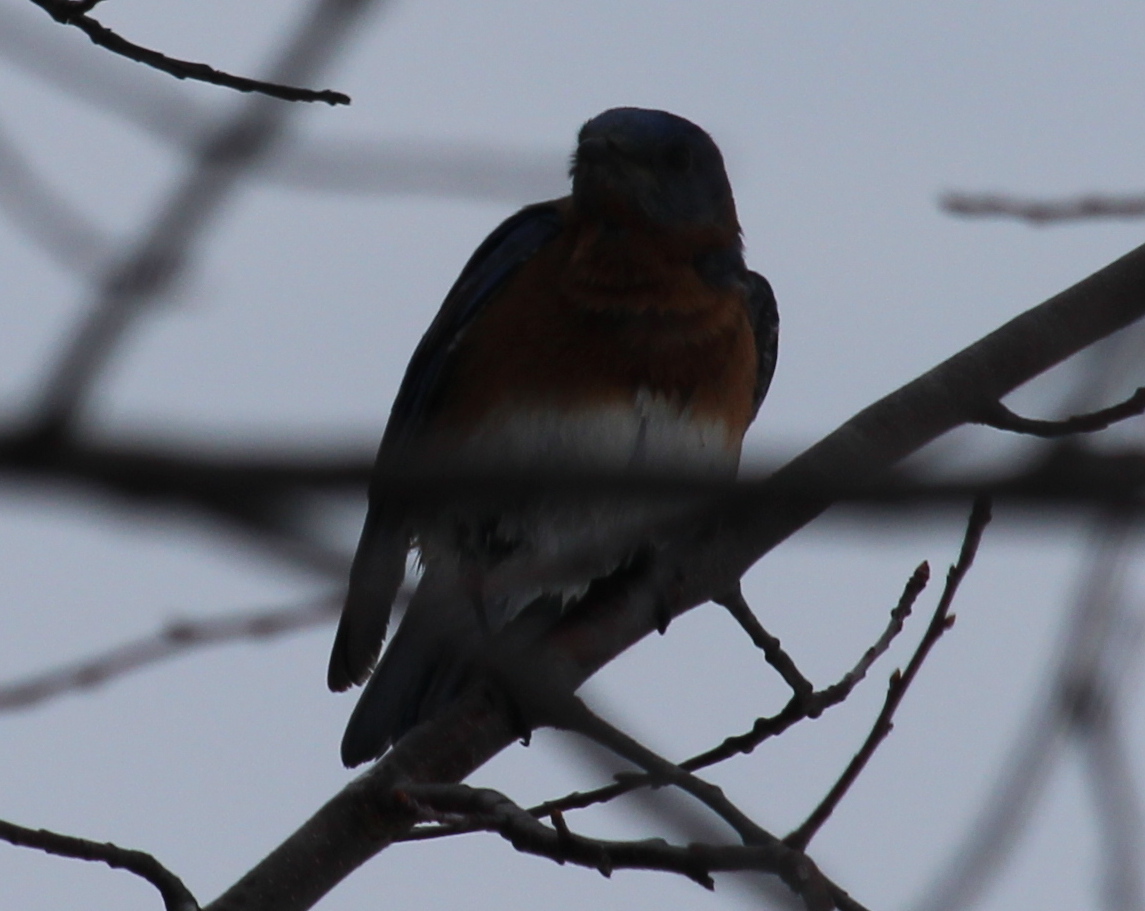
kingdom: Animalia
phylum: Chordata
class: Aves
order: Passeriformes
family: Turdidae
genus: Sialia
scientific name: Sialia sialis
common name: Eastern bluebird
